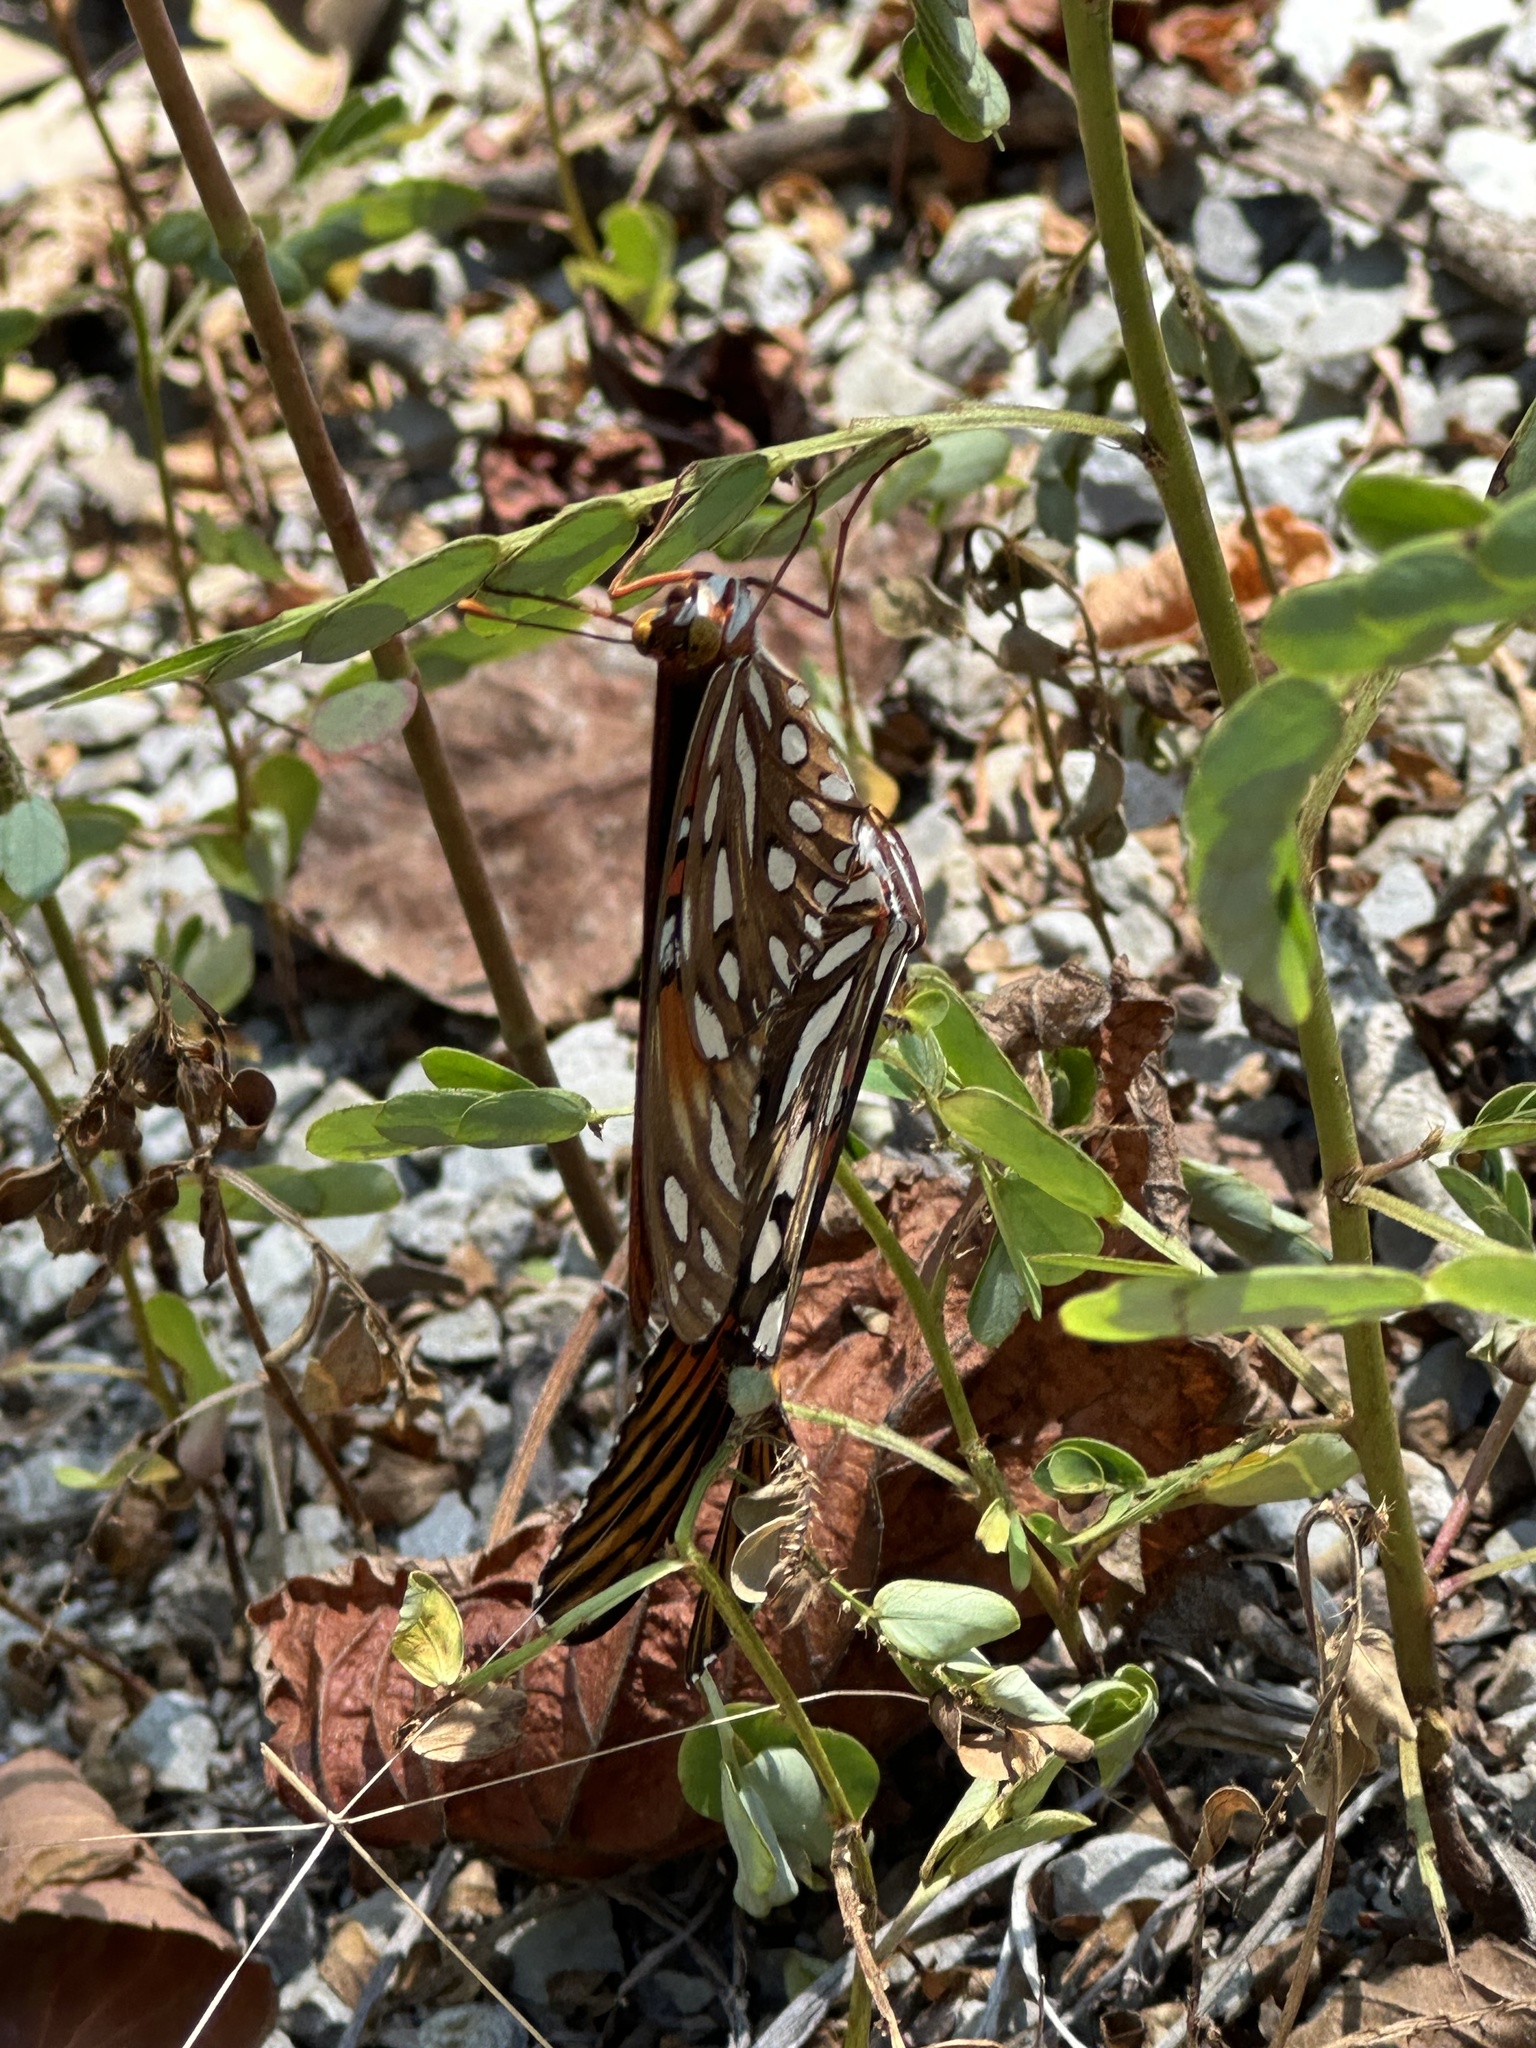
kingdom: Animalia
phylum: Arthropoda
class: Insecta
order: Lepidoptera
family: Nymphalidae
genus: Dione
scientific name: Dione vanillae
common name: Gulf fritillary
